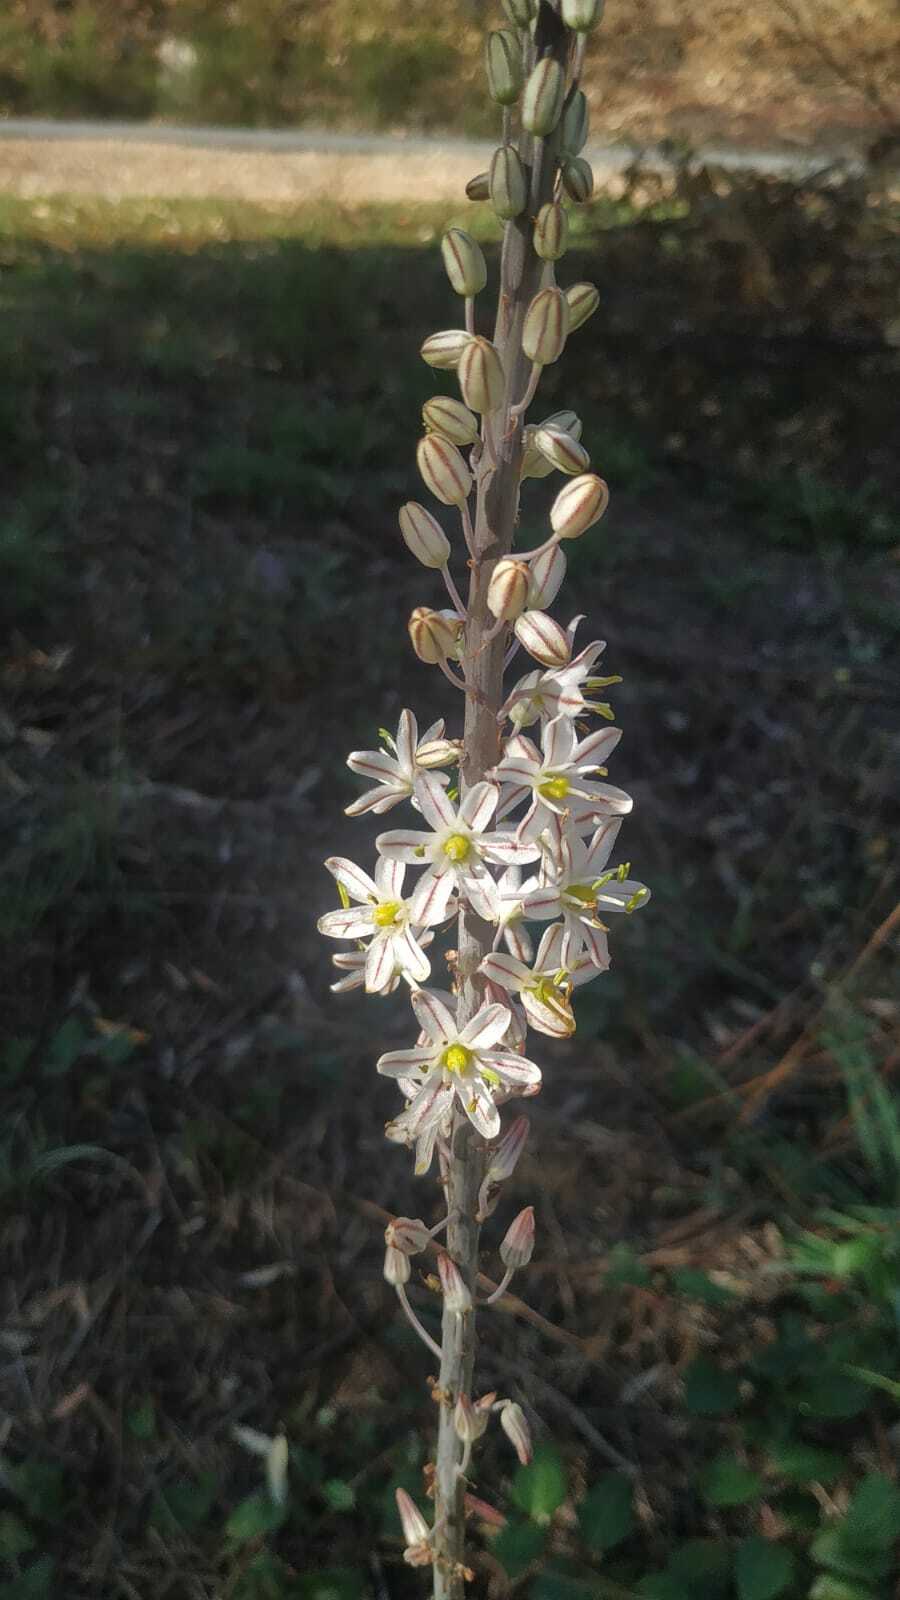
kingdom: Plantae
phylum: Tracheophyta
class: Liliopsida
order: Asparagales
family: Asparagaceae
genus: Drimia
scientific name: Drimia maritima
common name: Maritime squill
